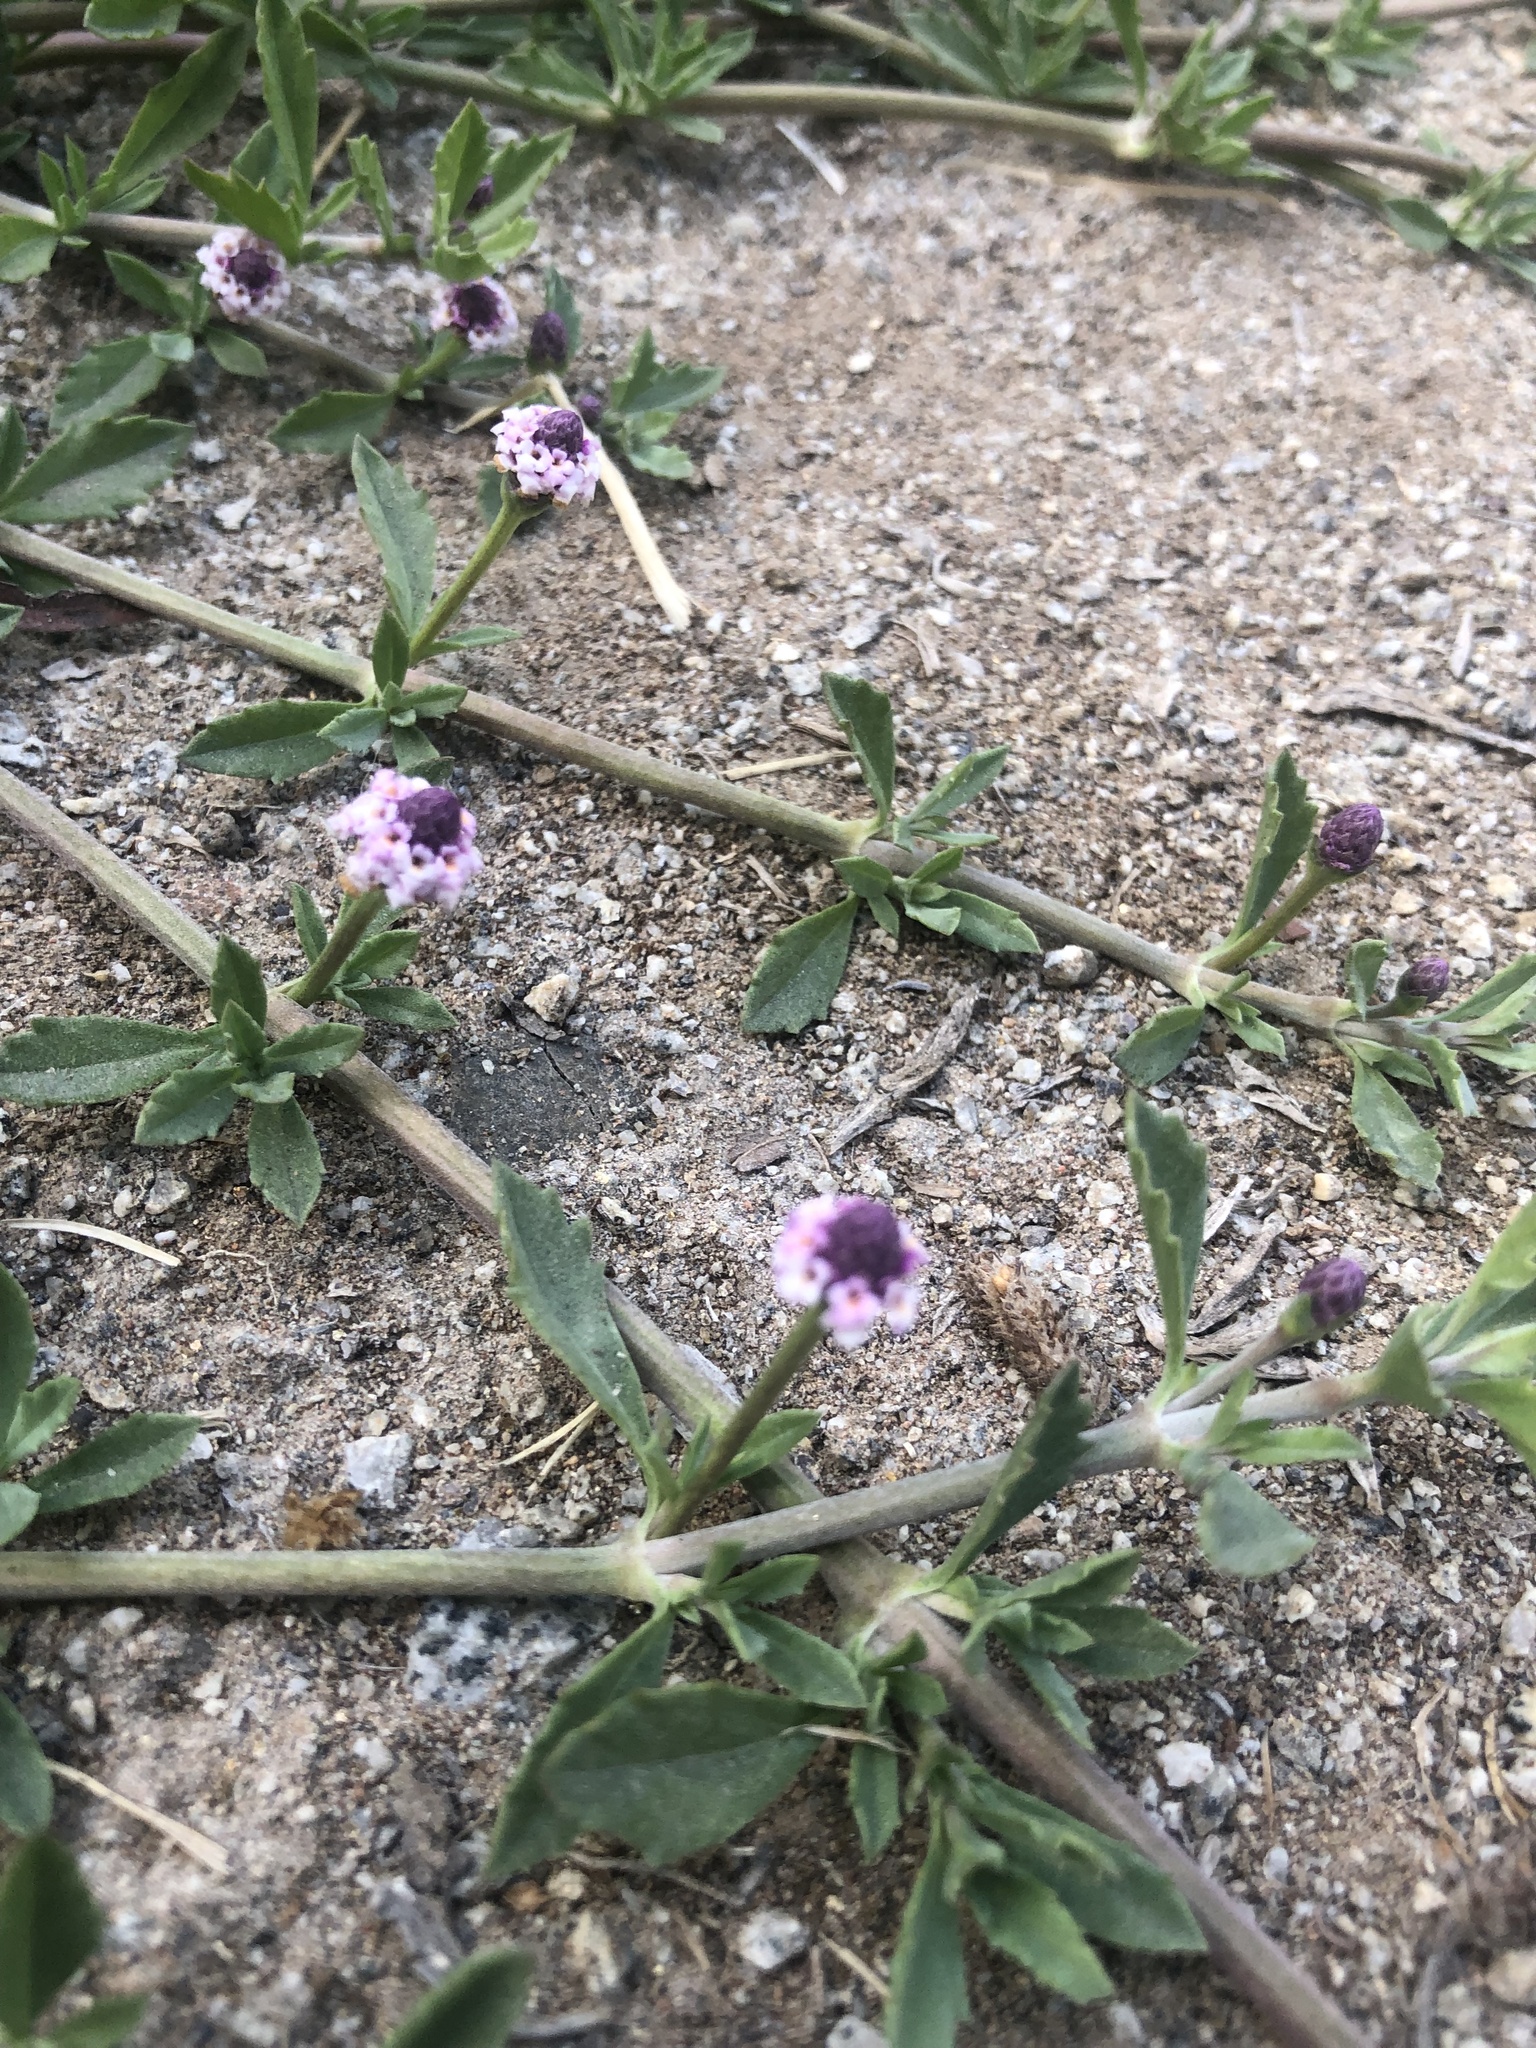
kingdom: Plantae
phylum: Tracheophyta
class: Magnoliopsida
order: Lamiales
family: Verbenaceae
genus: Phyla
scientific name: Phyla nodiflora
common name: Frogfruit
